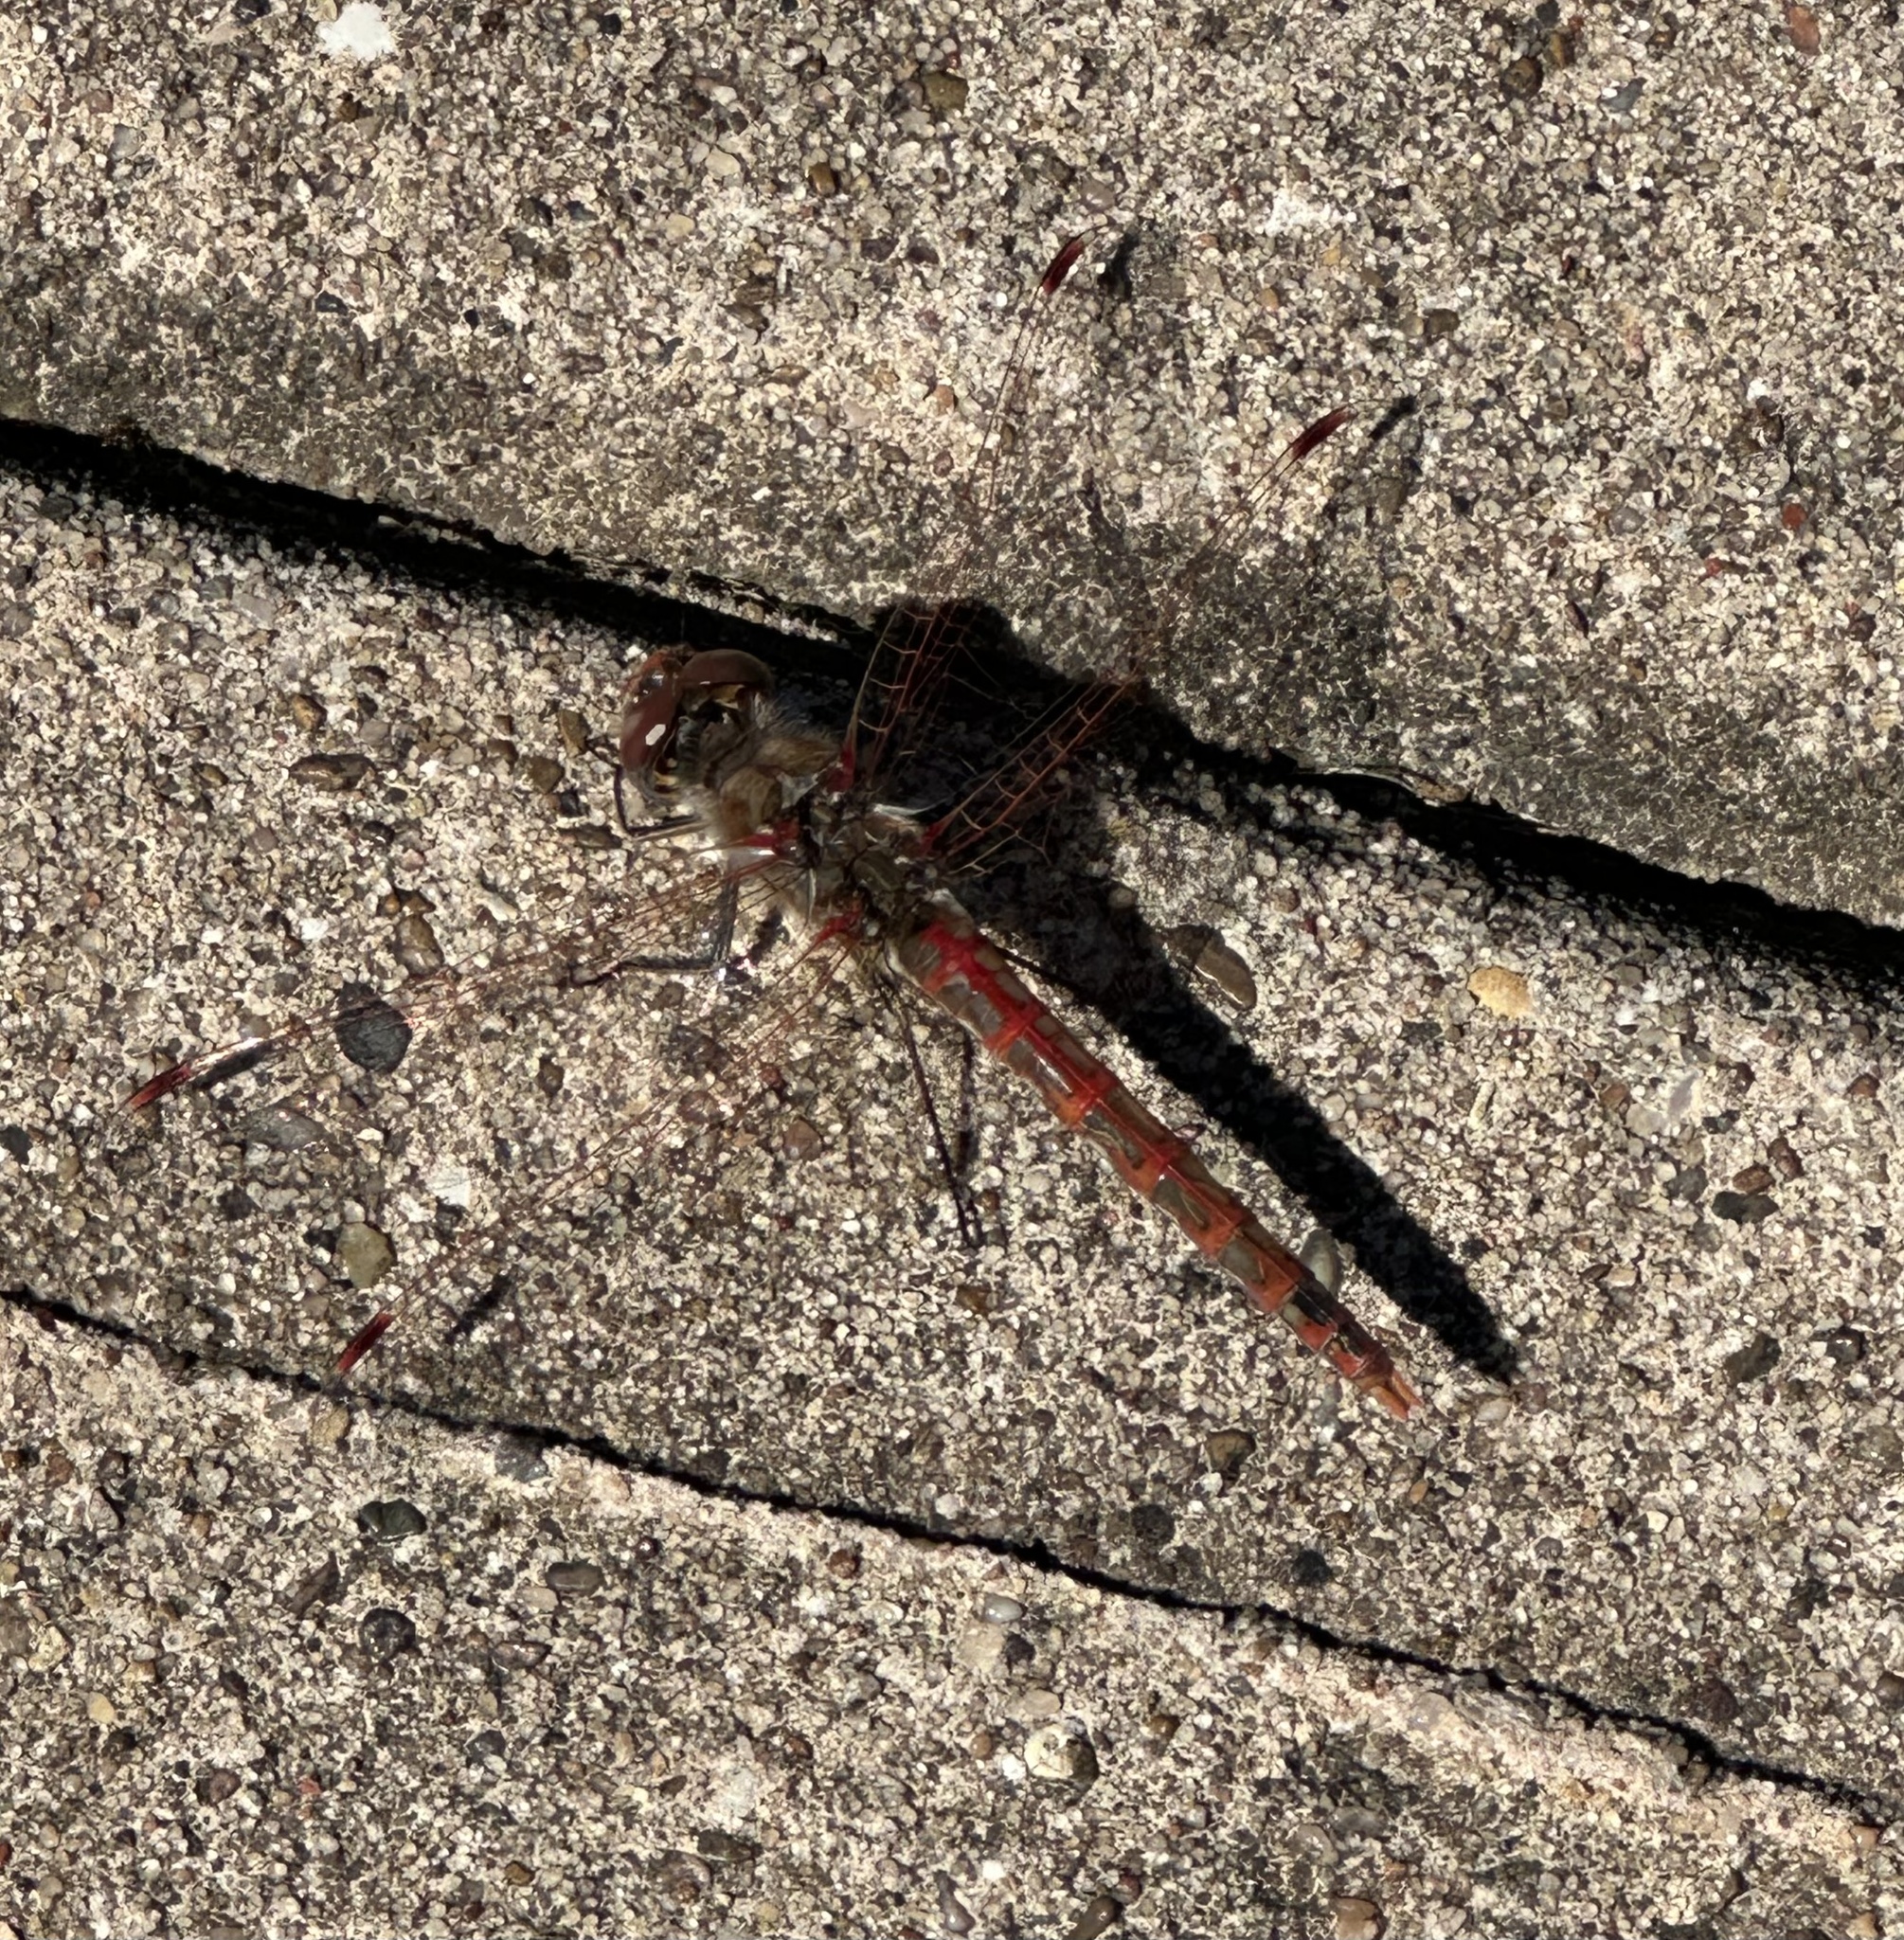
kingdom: Animalia
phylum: Arthropoda
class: Insecta
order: Odonata
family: Libellulidae
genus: Sympetrum
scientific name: Sympetrum corruptum
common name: Variegated meadowhawk
